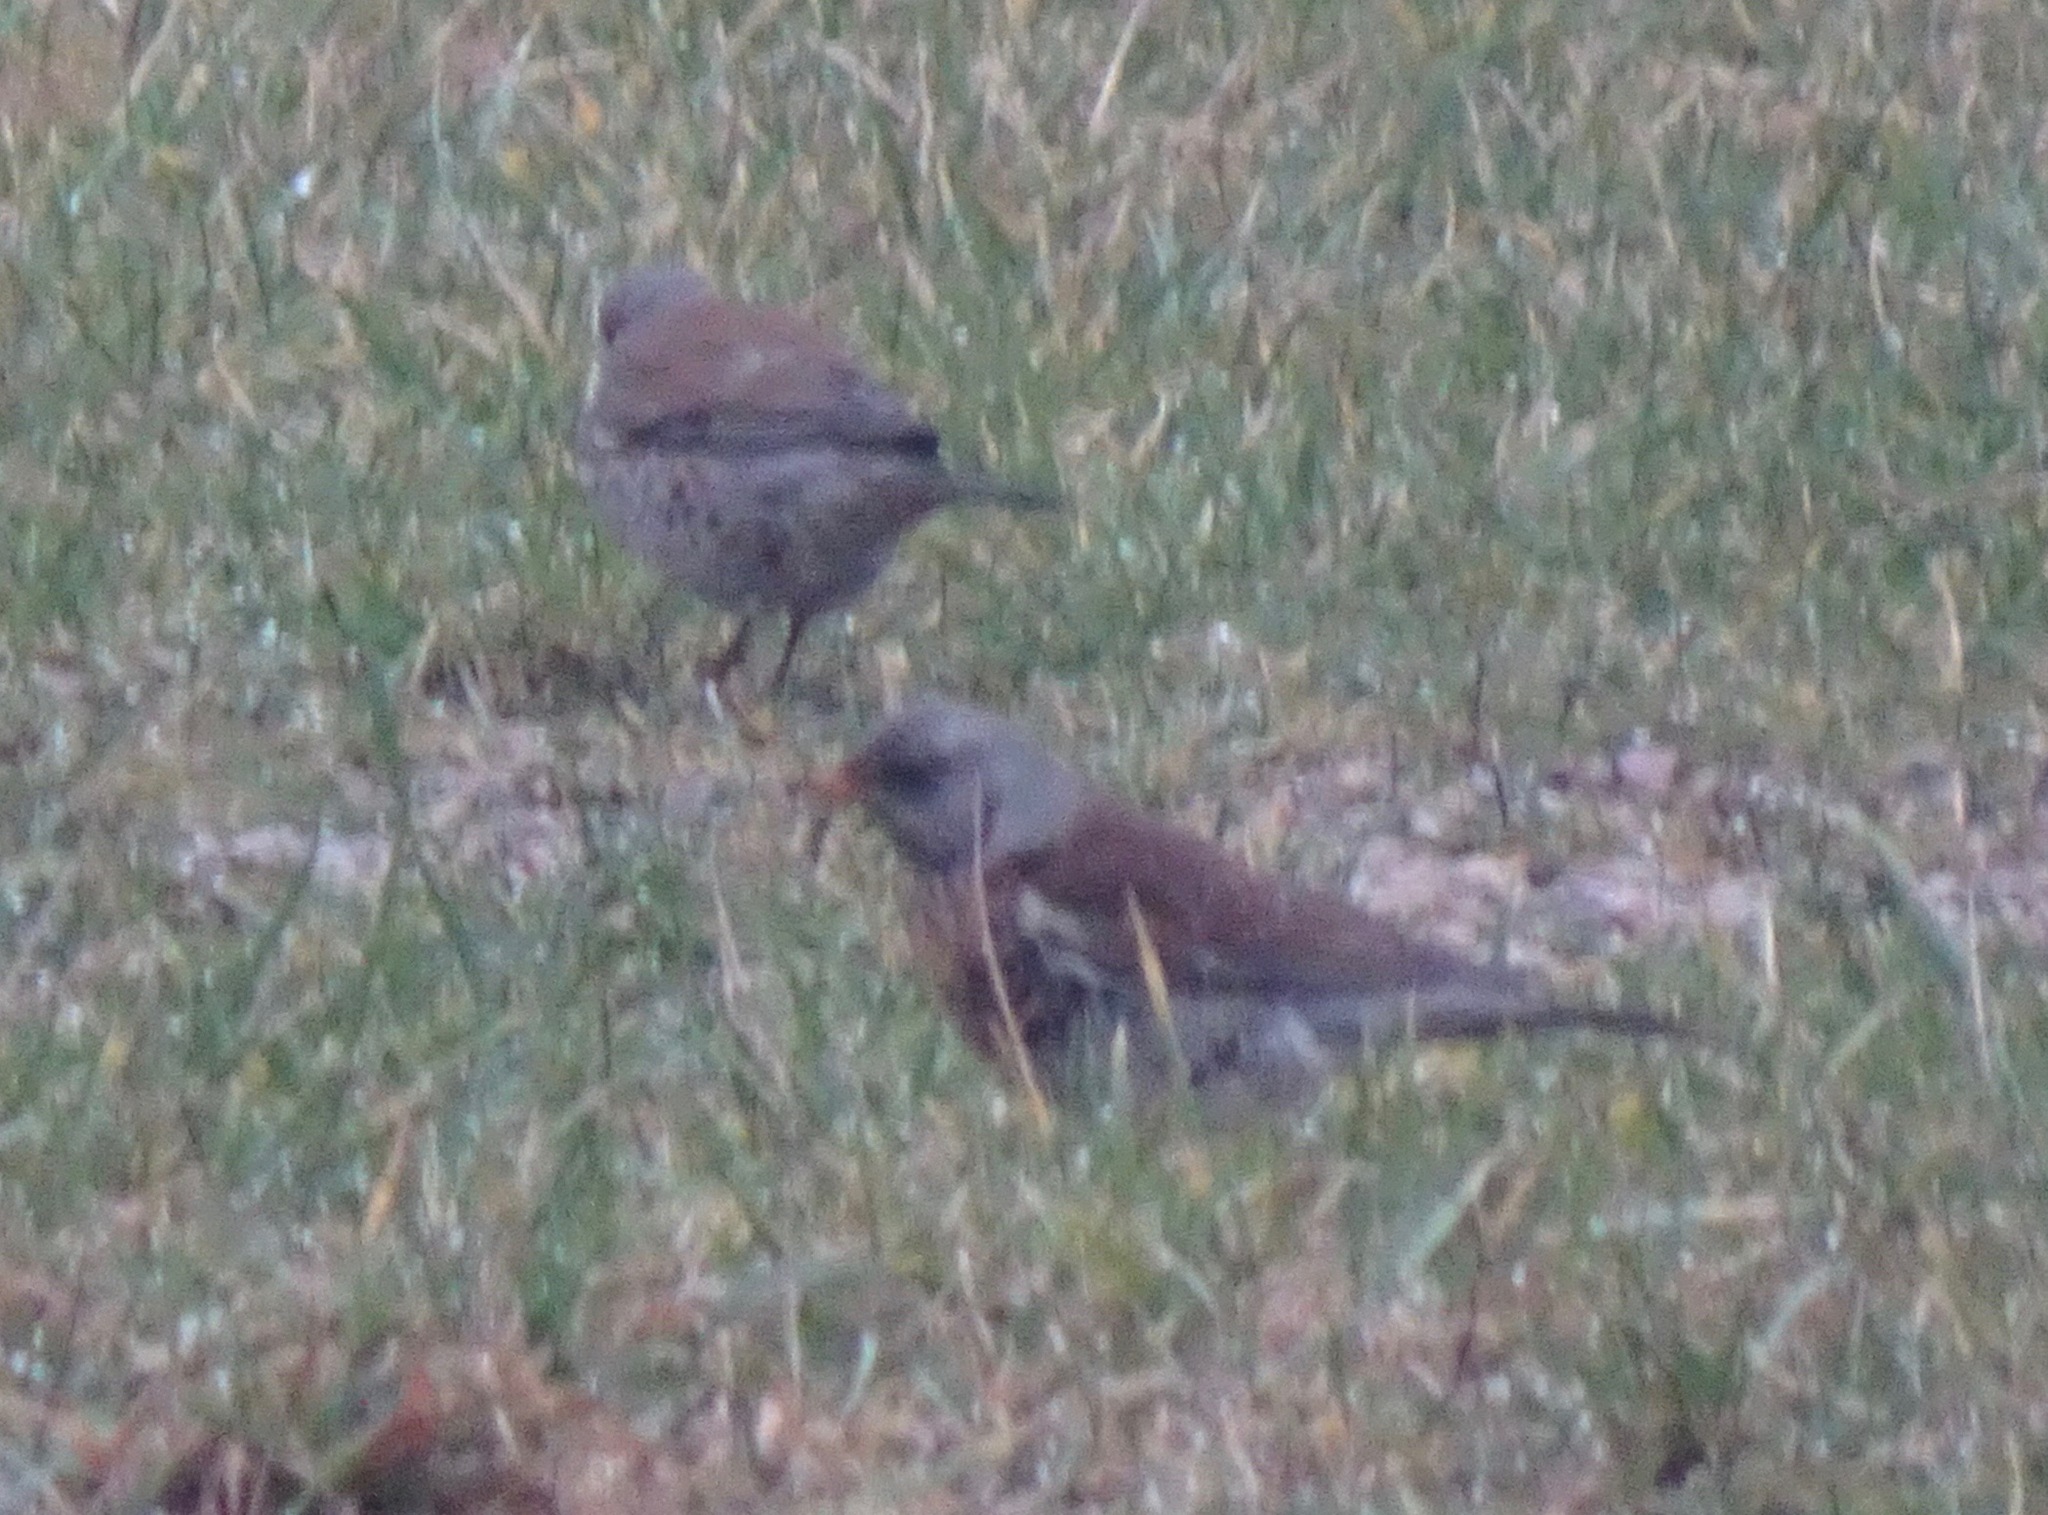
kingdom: Animalia
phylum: Chordata
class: Aves
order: Passeriformes
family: Turdidae
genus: Turdus
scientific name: Turdus pilaris
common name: Fieldfare
